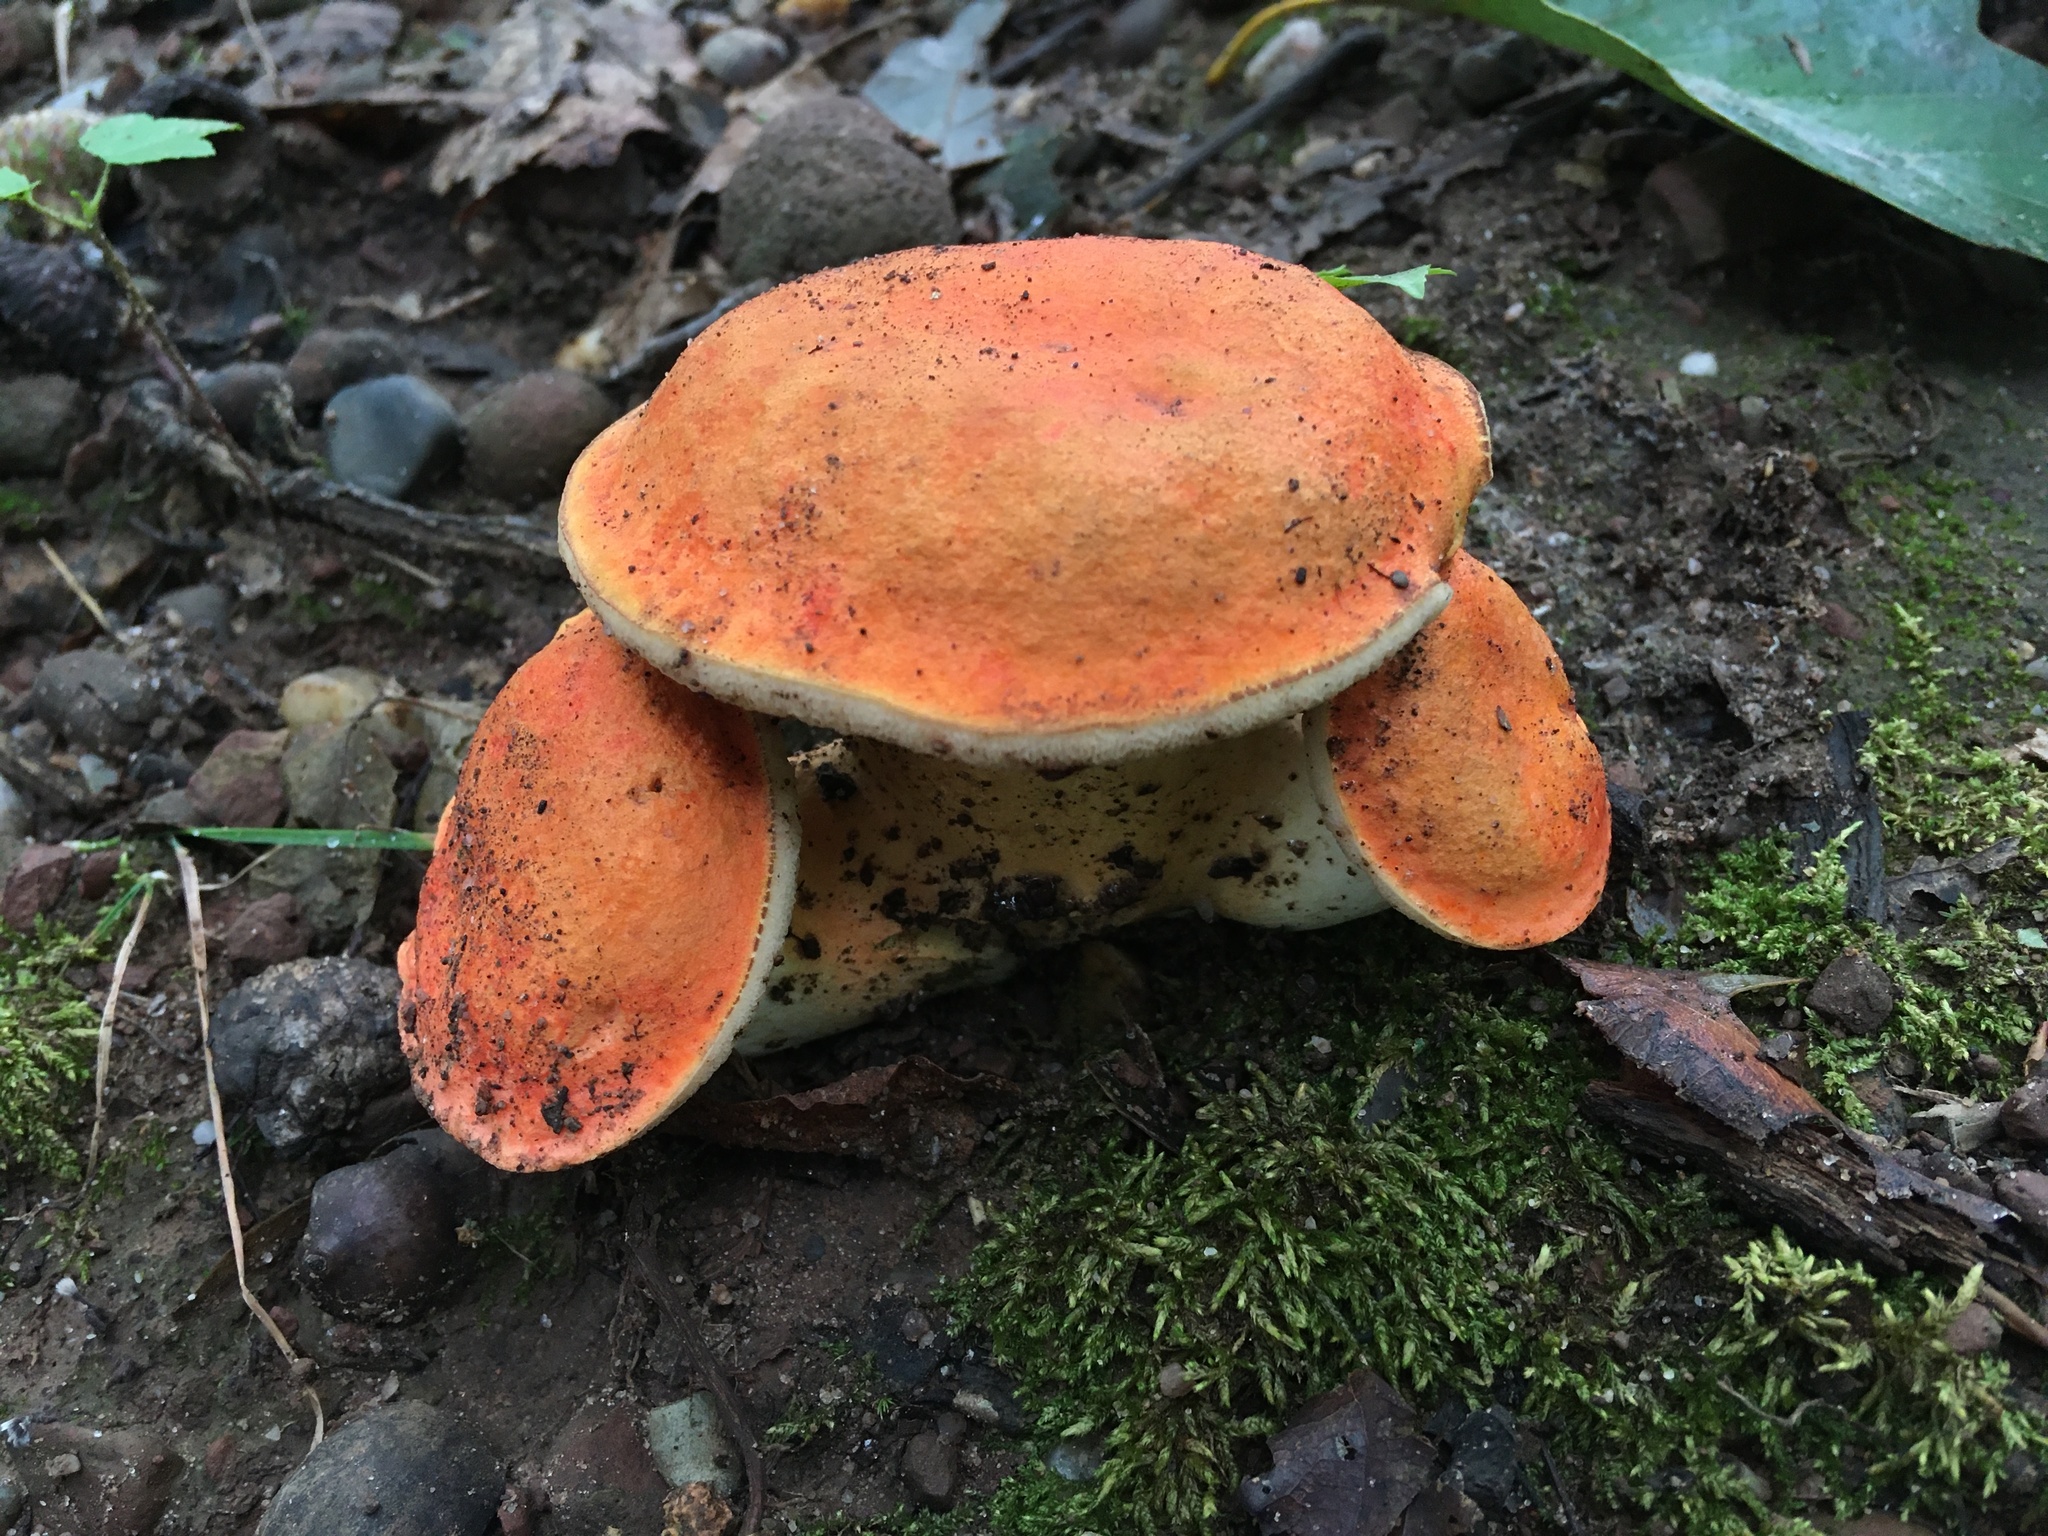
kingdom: Fungi
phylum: Basidiomycota
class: Agaricomycetes
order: Boletales
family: Boletaceae
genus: Tylopilus
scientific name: Tylopilus balloui
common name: Burnt-orange bolete
